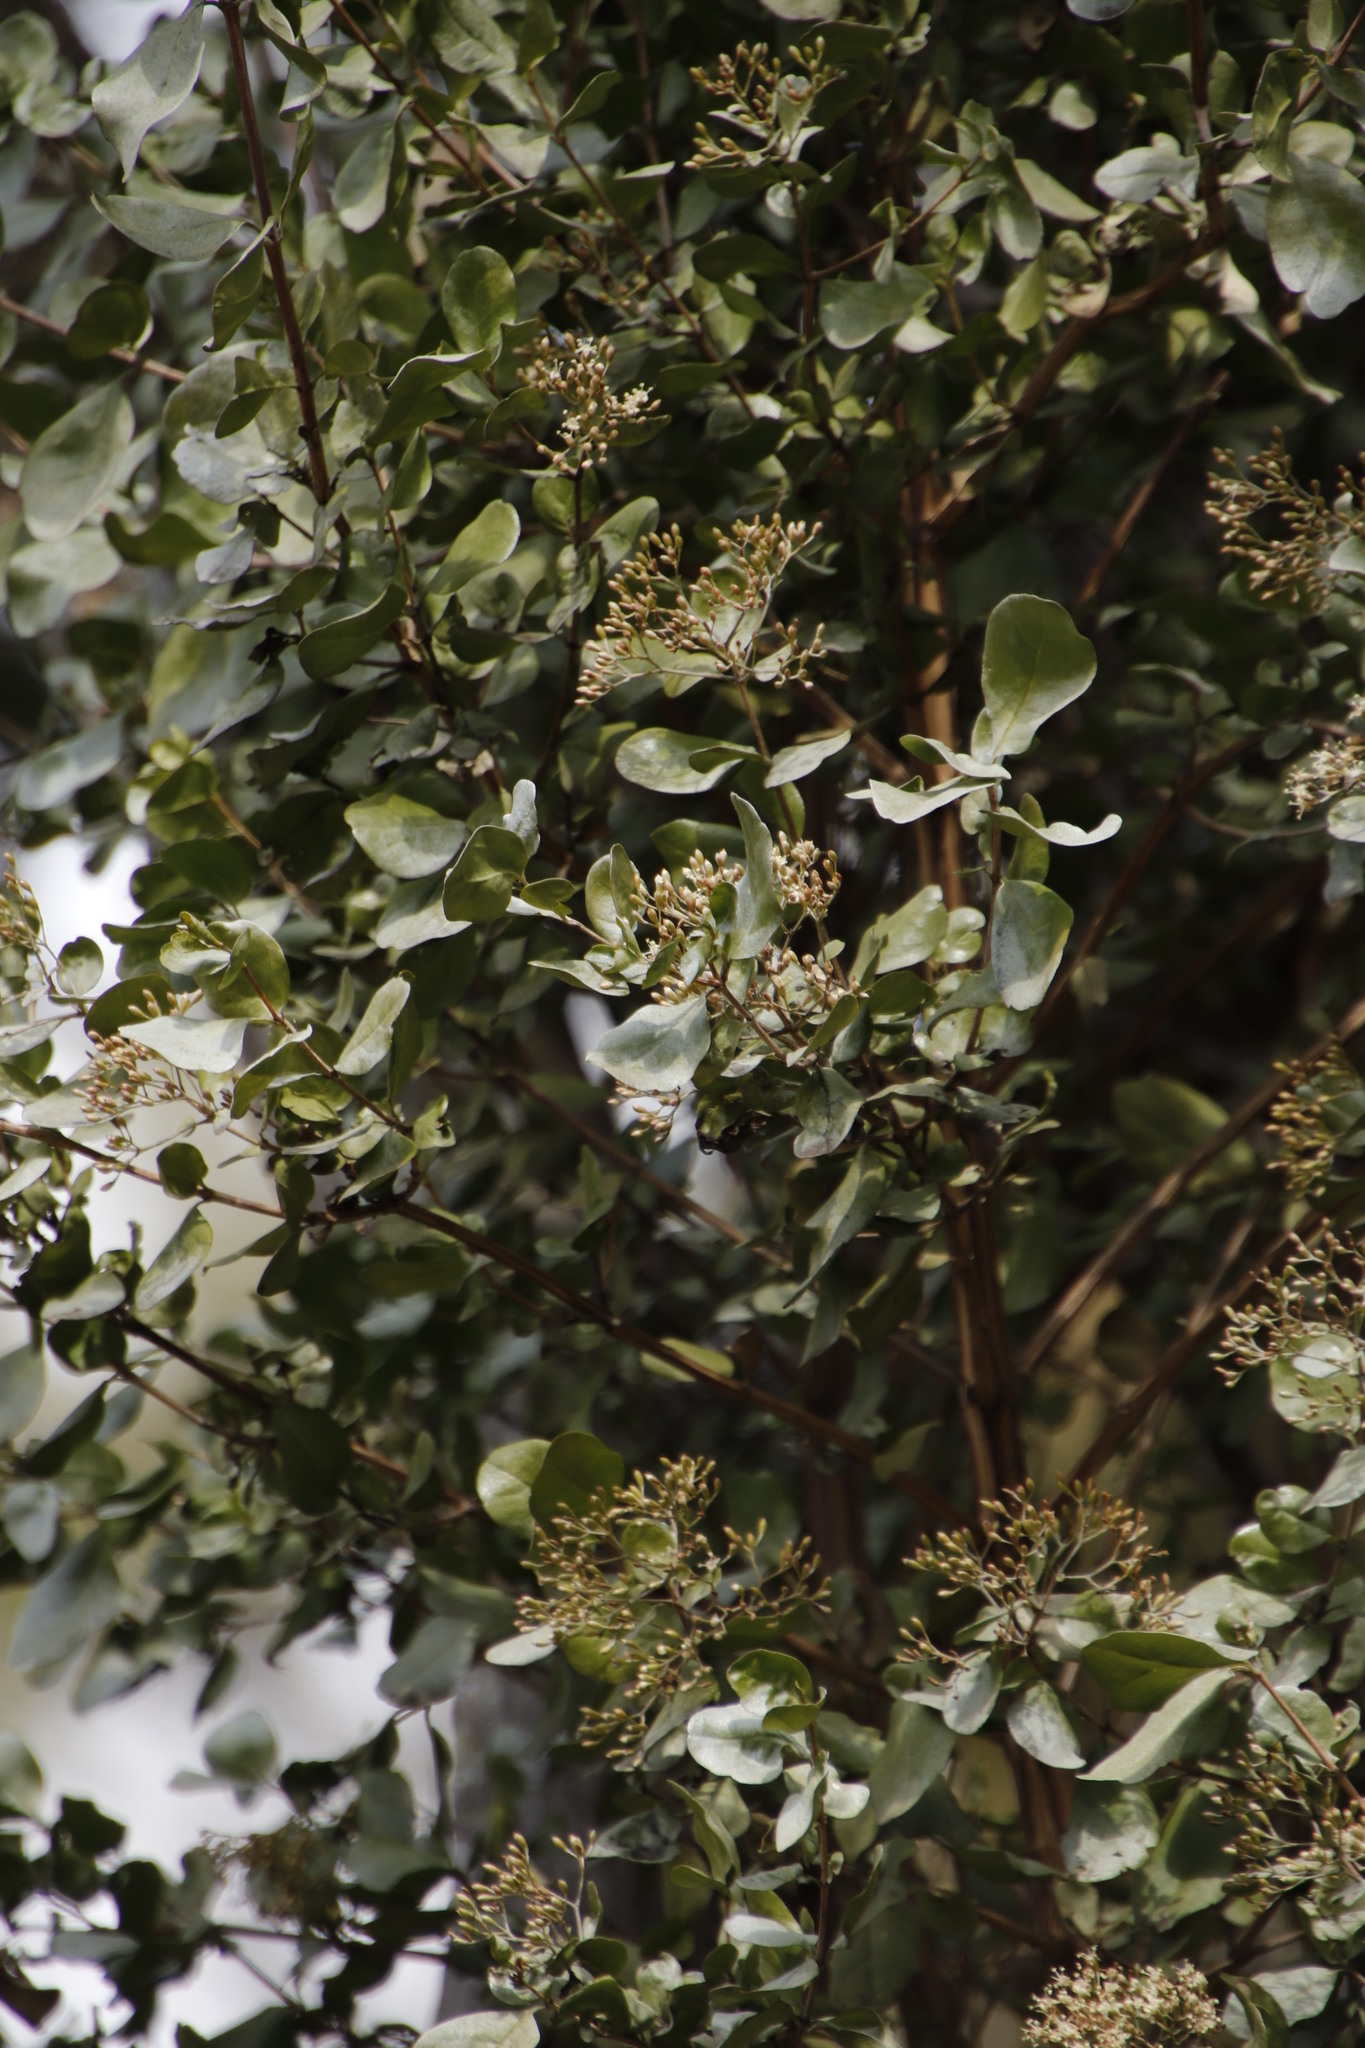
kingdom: Plantae
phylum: Tracheophyta
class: Magnoliopsida
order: Lamiales
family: Stilbaceae
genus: Nuxia
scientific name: Nuxia congesta
